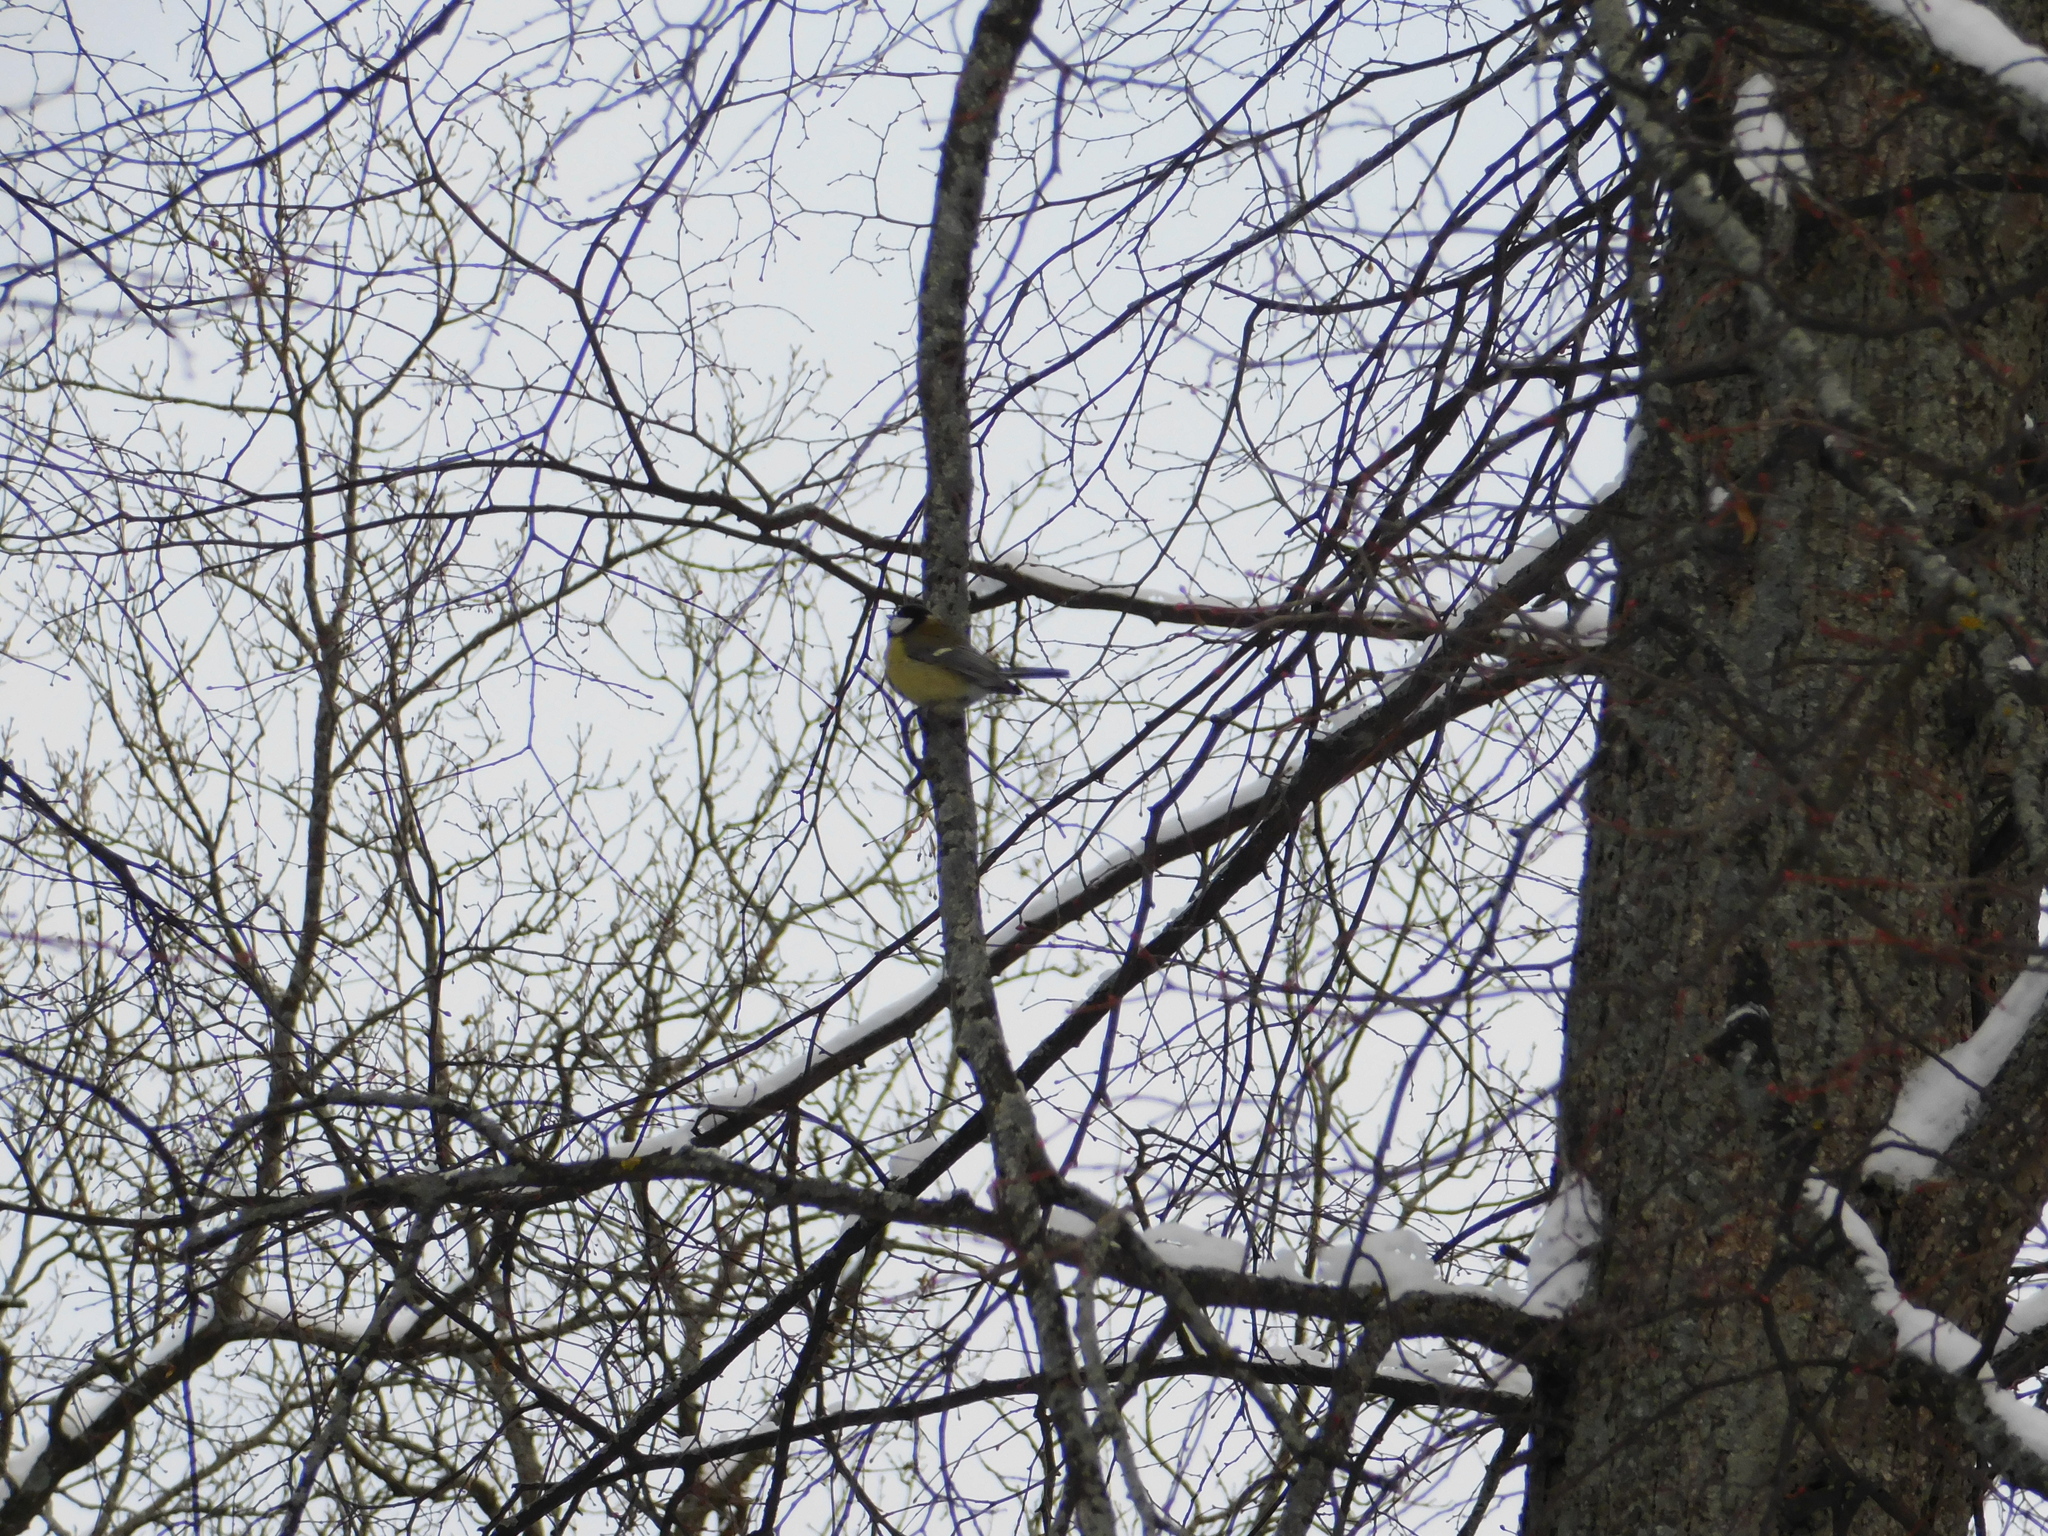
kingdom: Animalia
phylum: Chordata
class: Aves
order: Passeriformes
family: Paridae
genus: Parus
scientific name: Parus major
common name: Great tit
